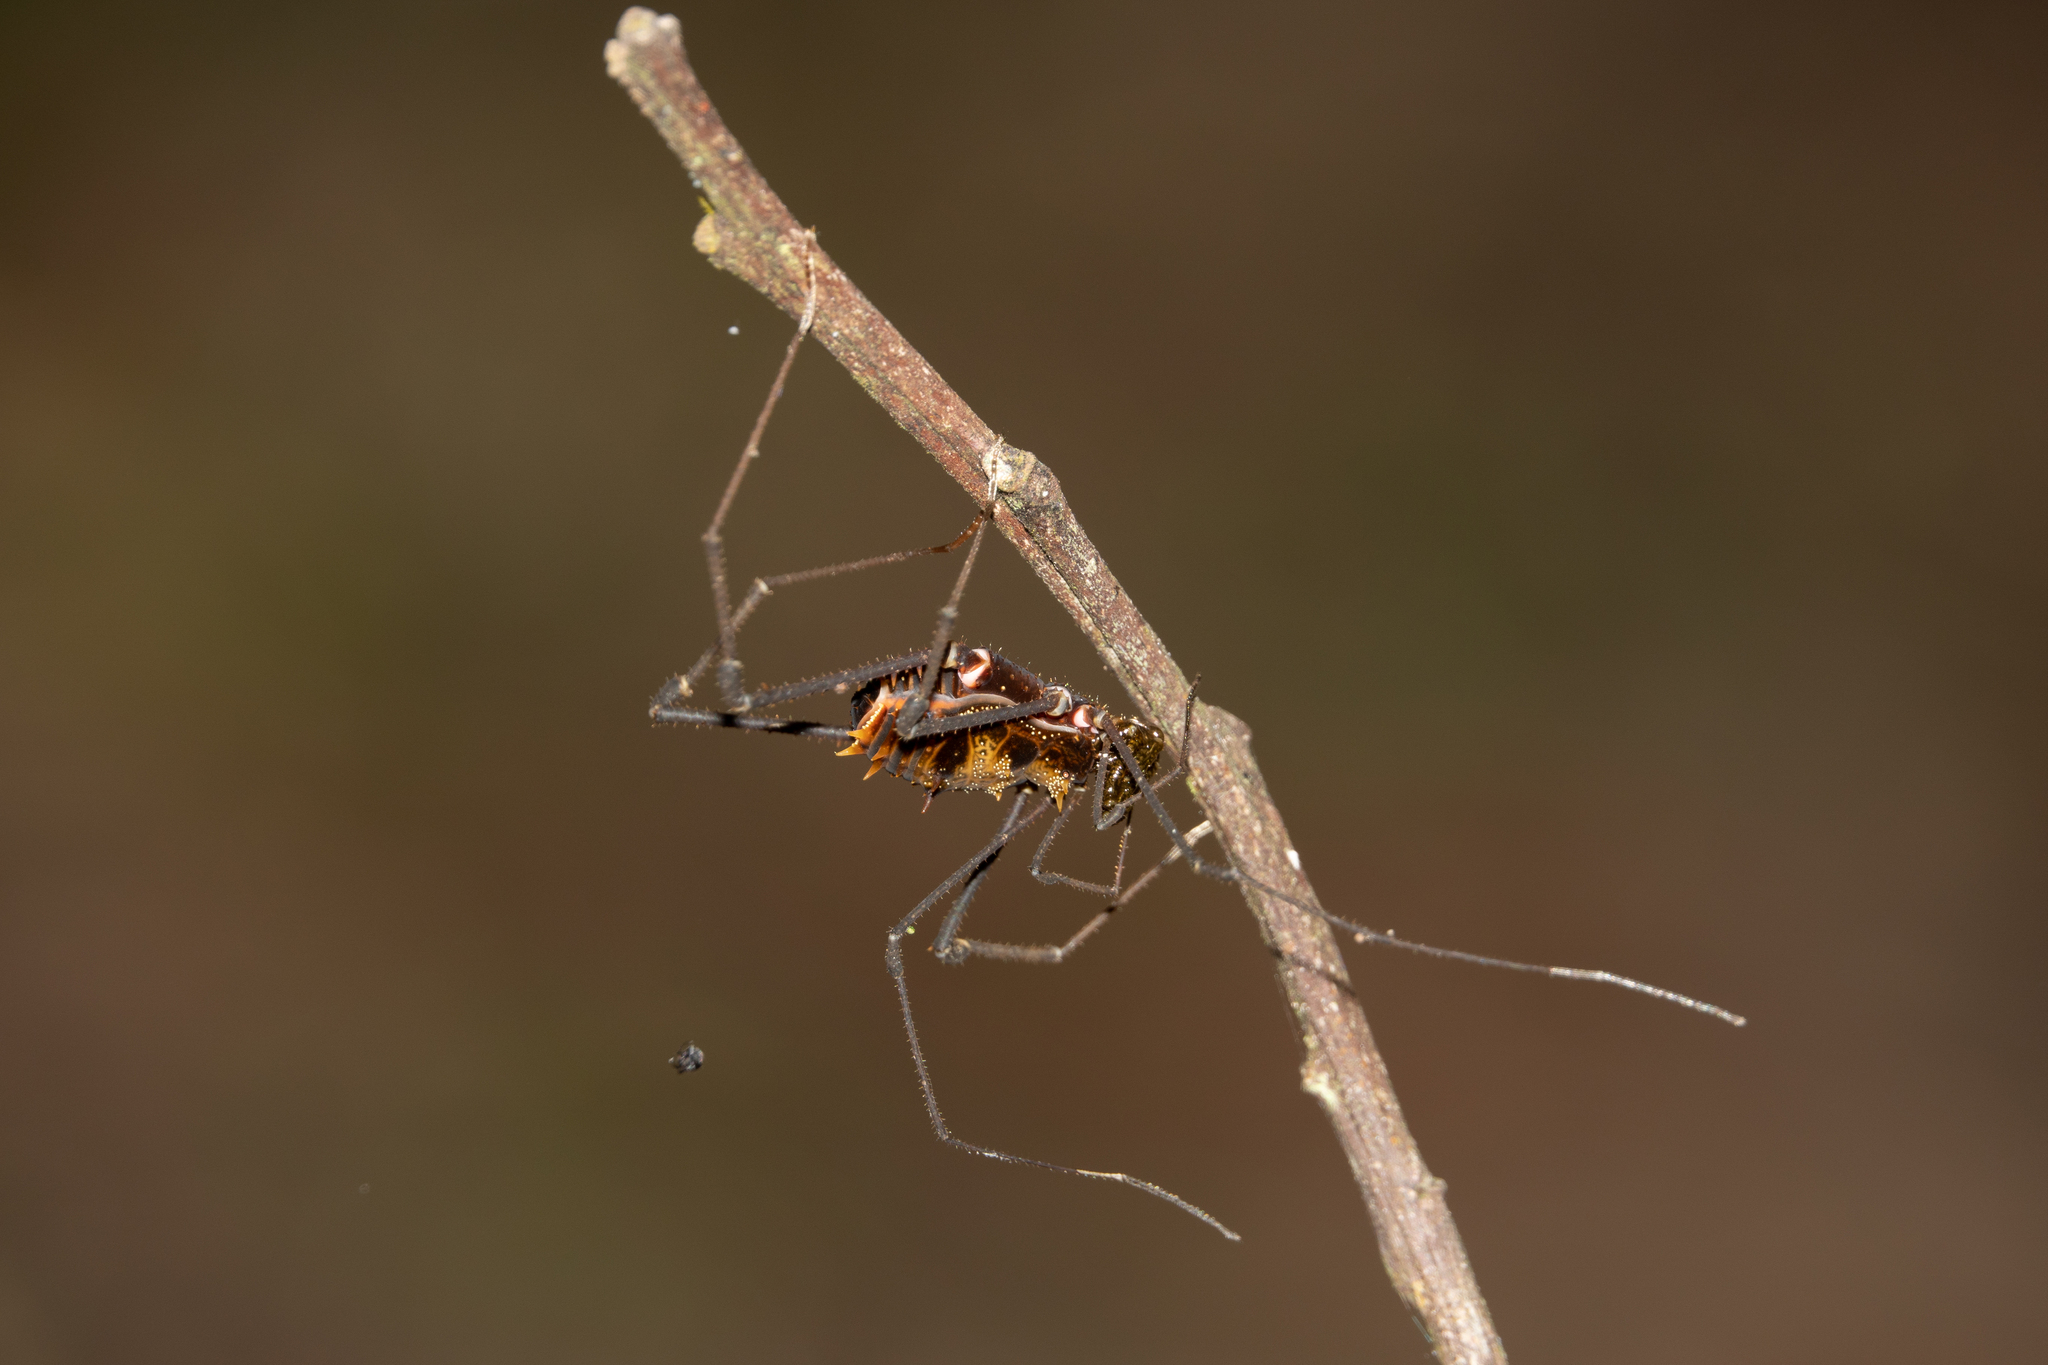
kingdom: Animalia
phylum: Arthropoda
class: Arachnida
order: Opiliones
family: Cranaidae
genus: Nieblia
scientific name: Nieblia arthrocentrica
